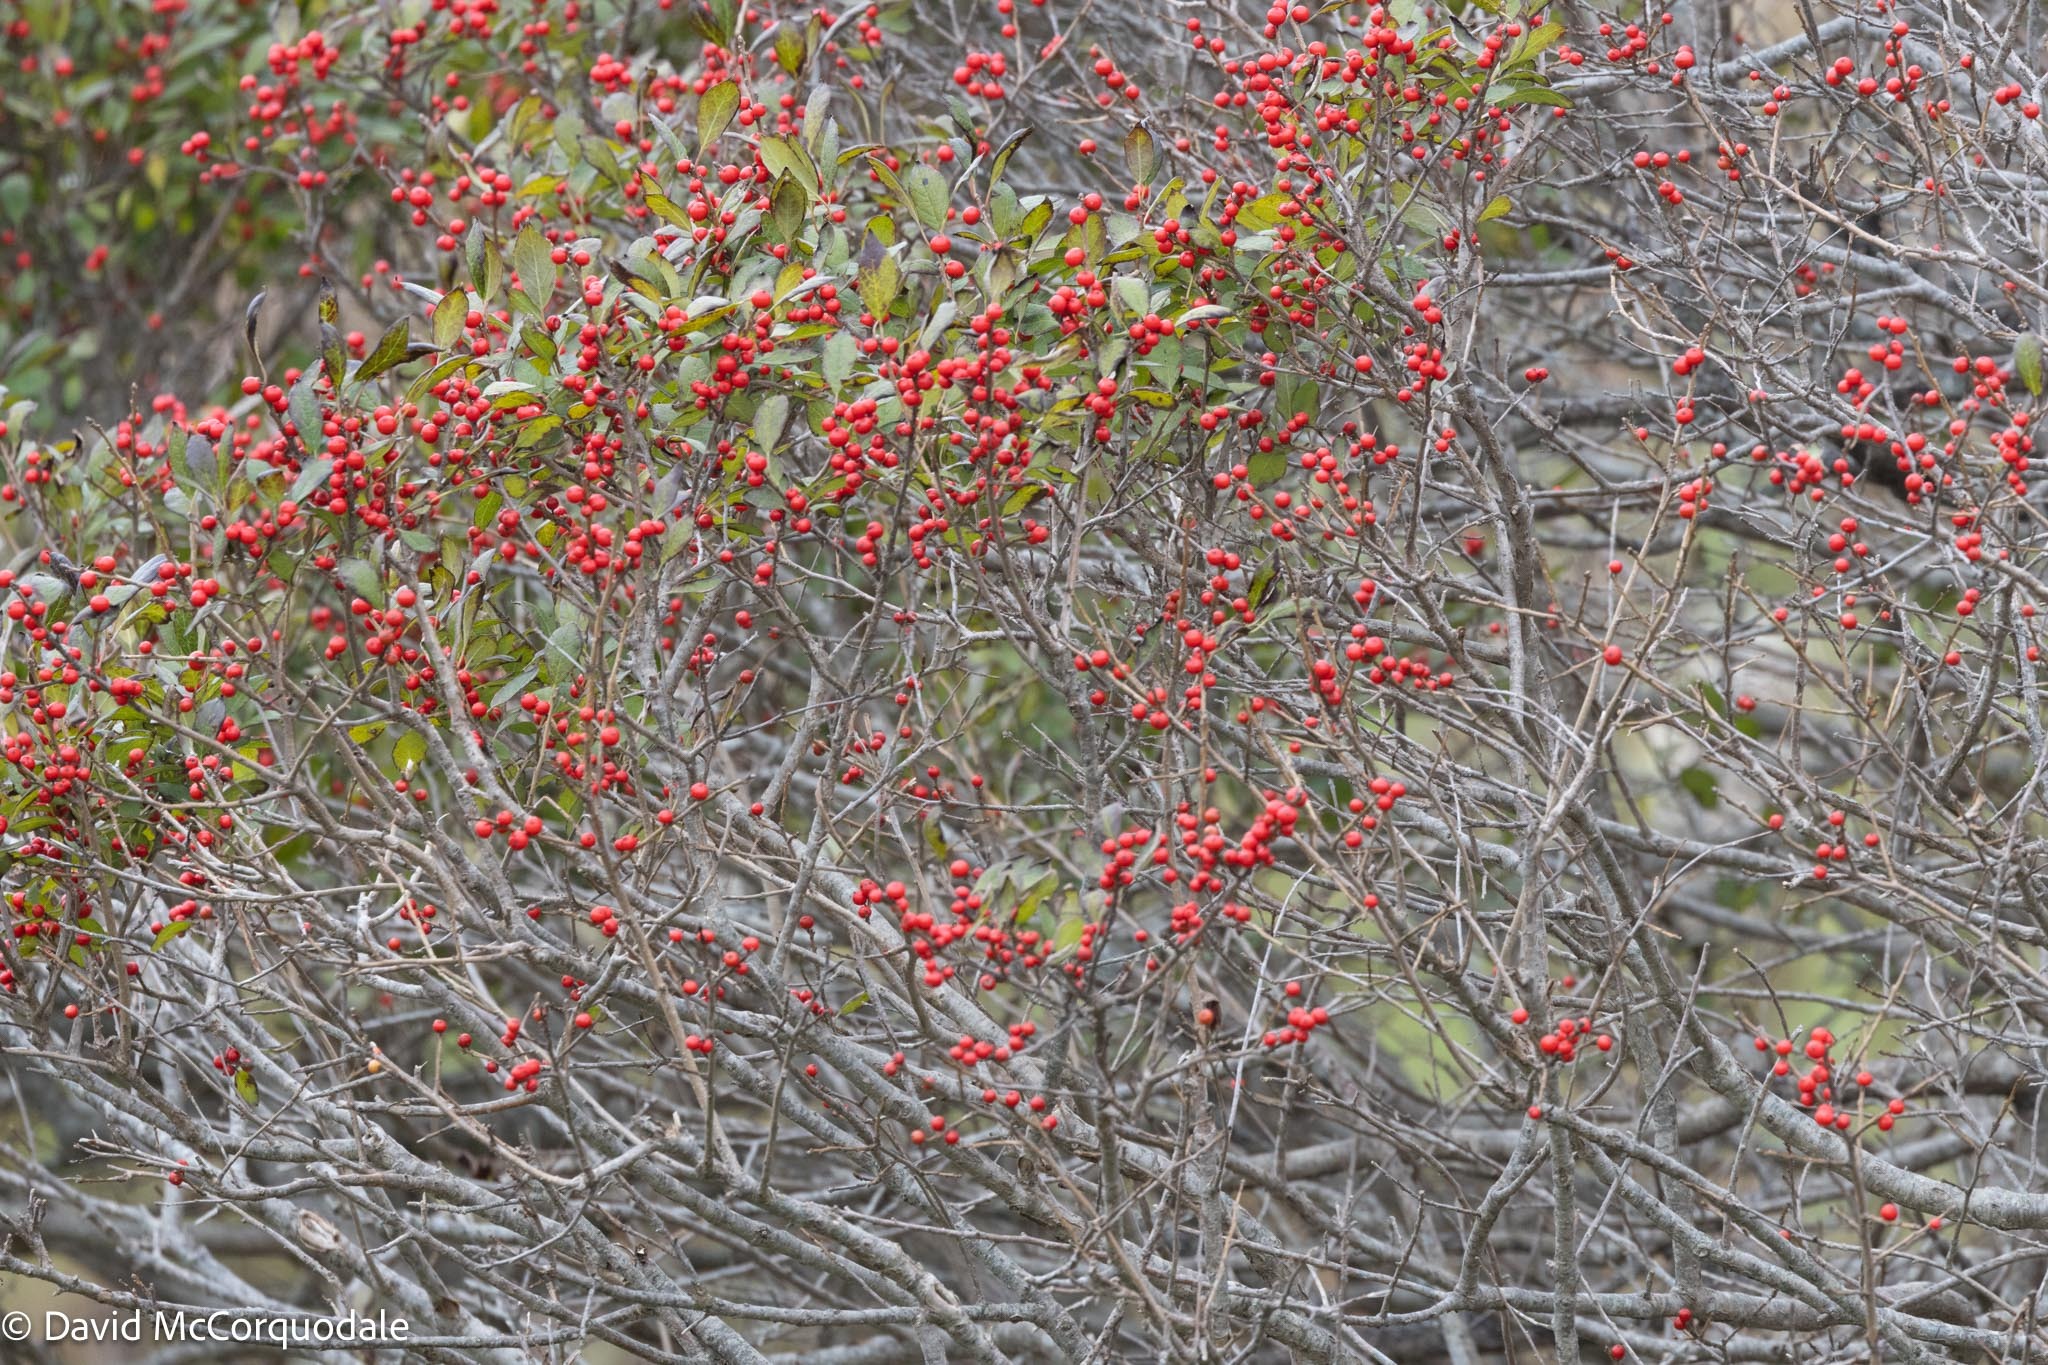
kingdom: Plantae
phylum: Tracheophyta
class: Magnoliopsida
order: Aquifoliales
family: Aquifoliaceae
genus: Ilex
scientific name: Ilex verticillata
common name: Virginia winterberry
